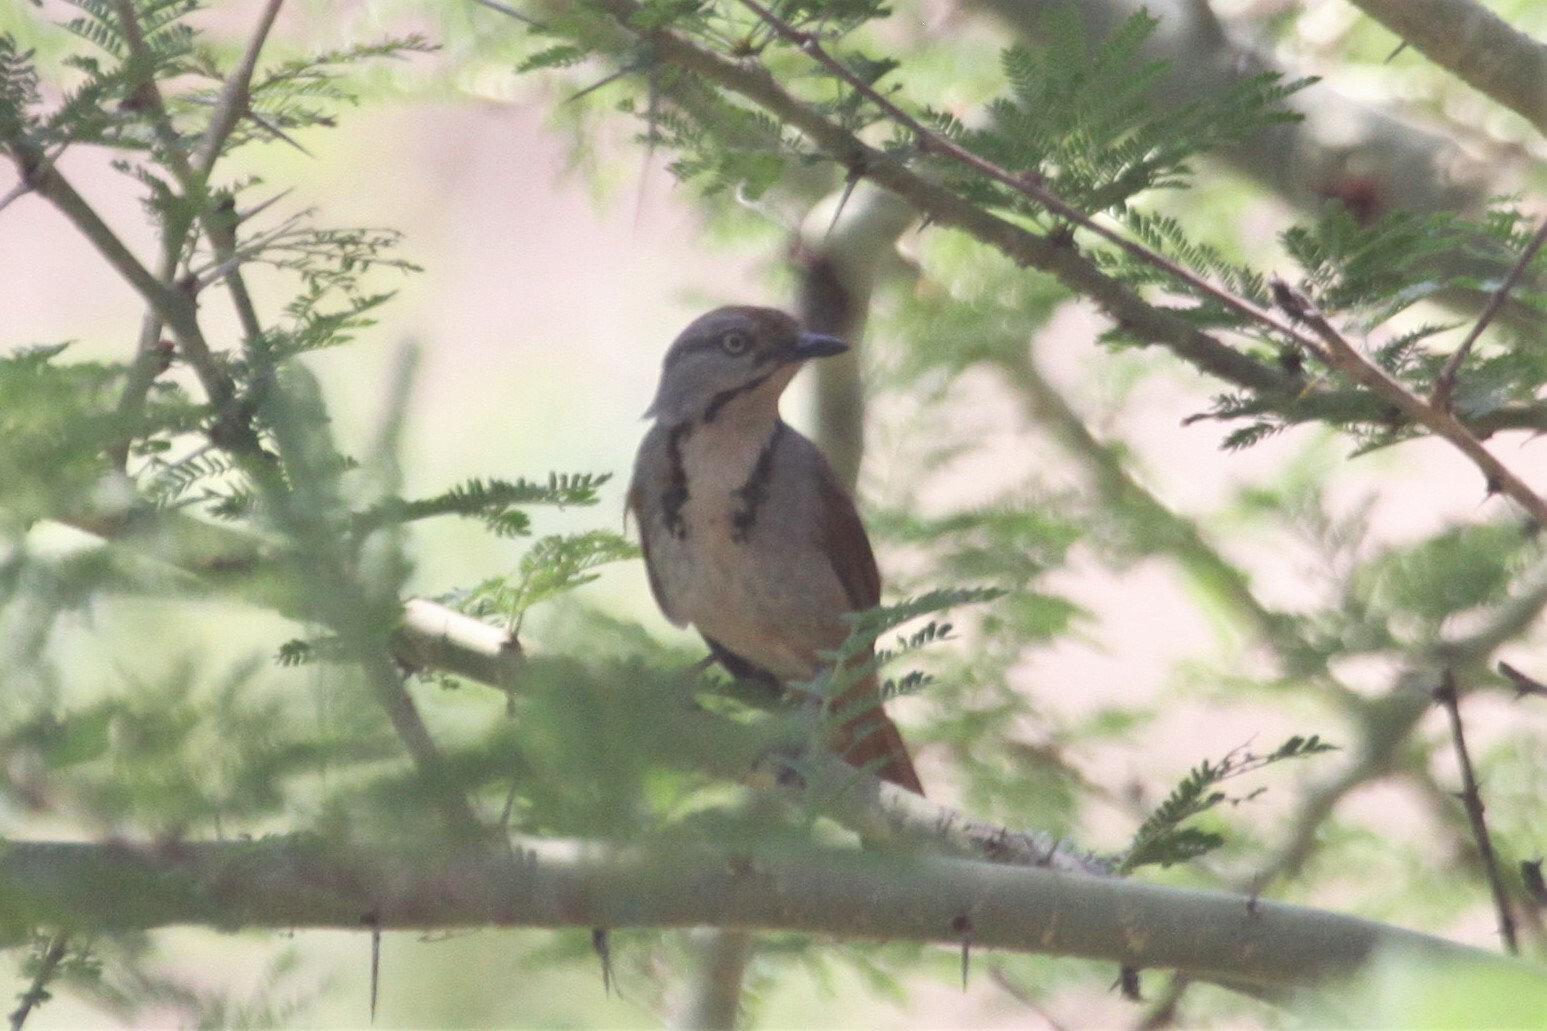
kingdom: Animalia
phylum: Chordata
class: Aves
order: Passeriformes
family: Muscicapidae
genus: Cichladusa
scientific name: Cichladusa arquata
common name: Collared palm thrush
